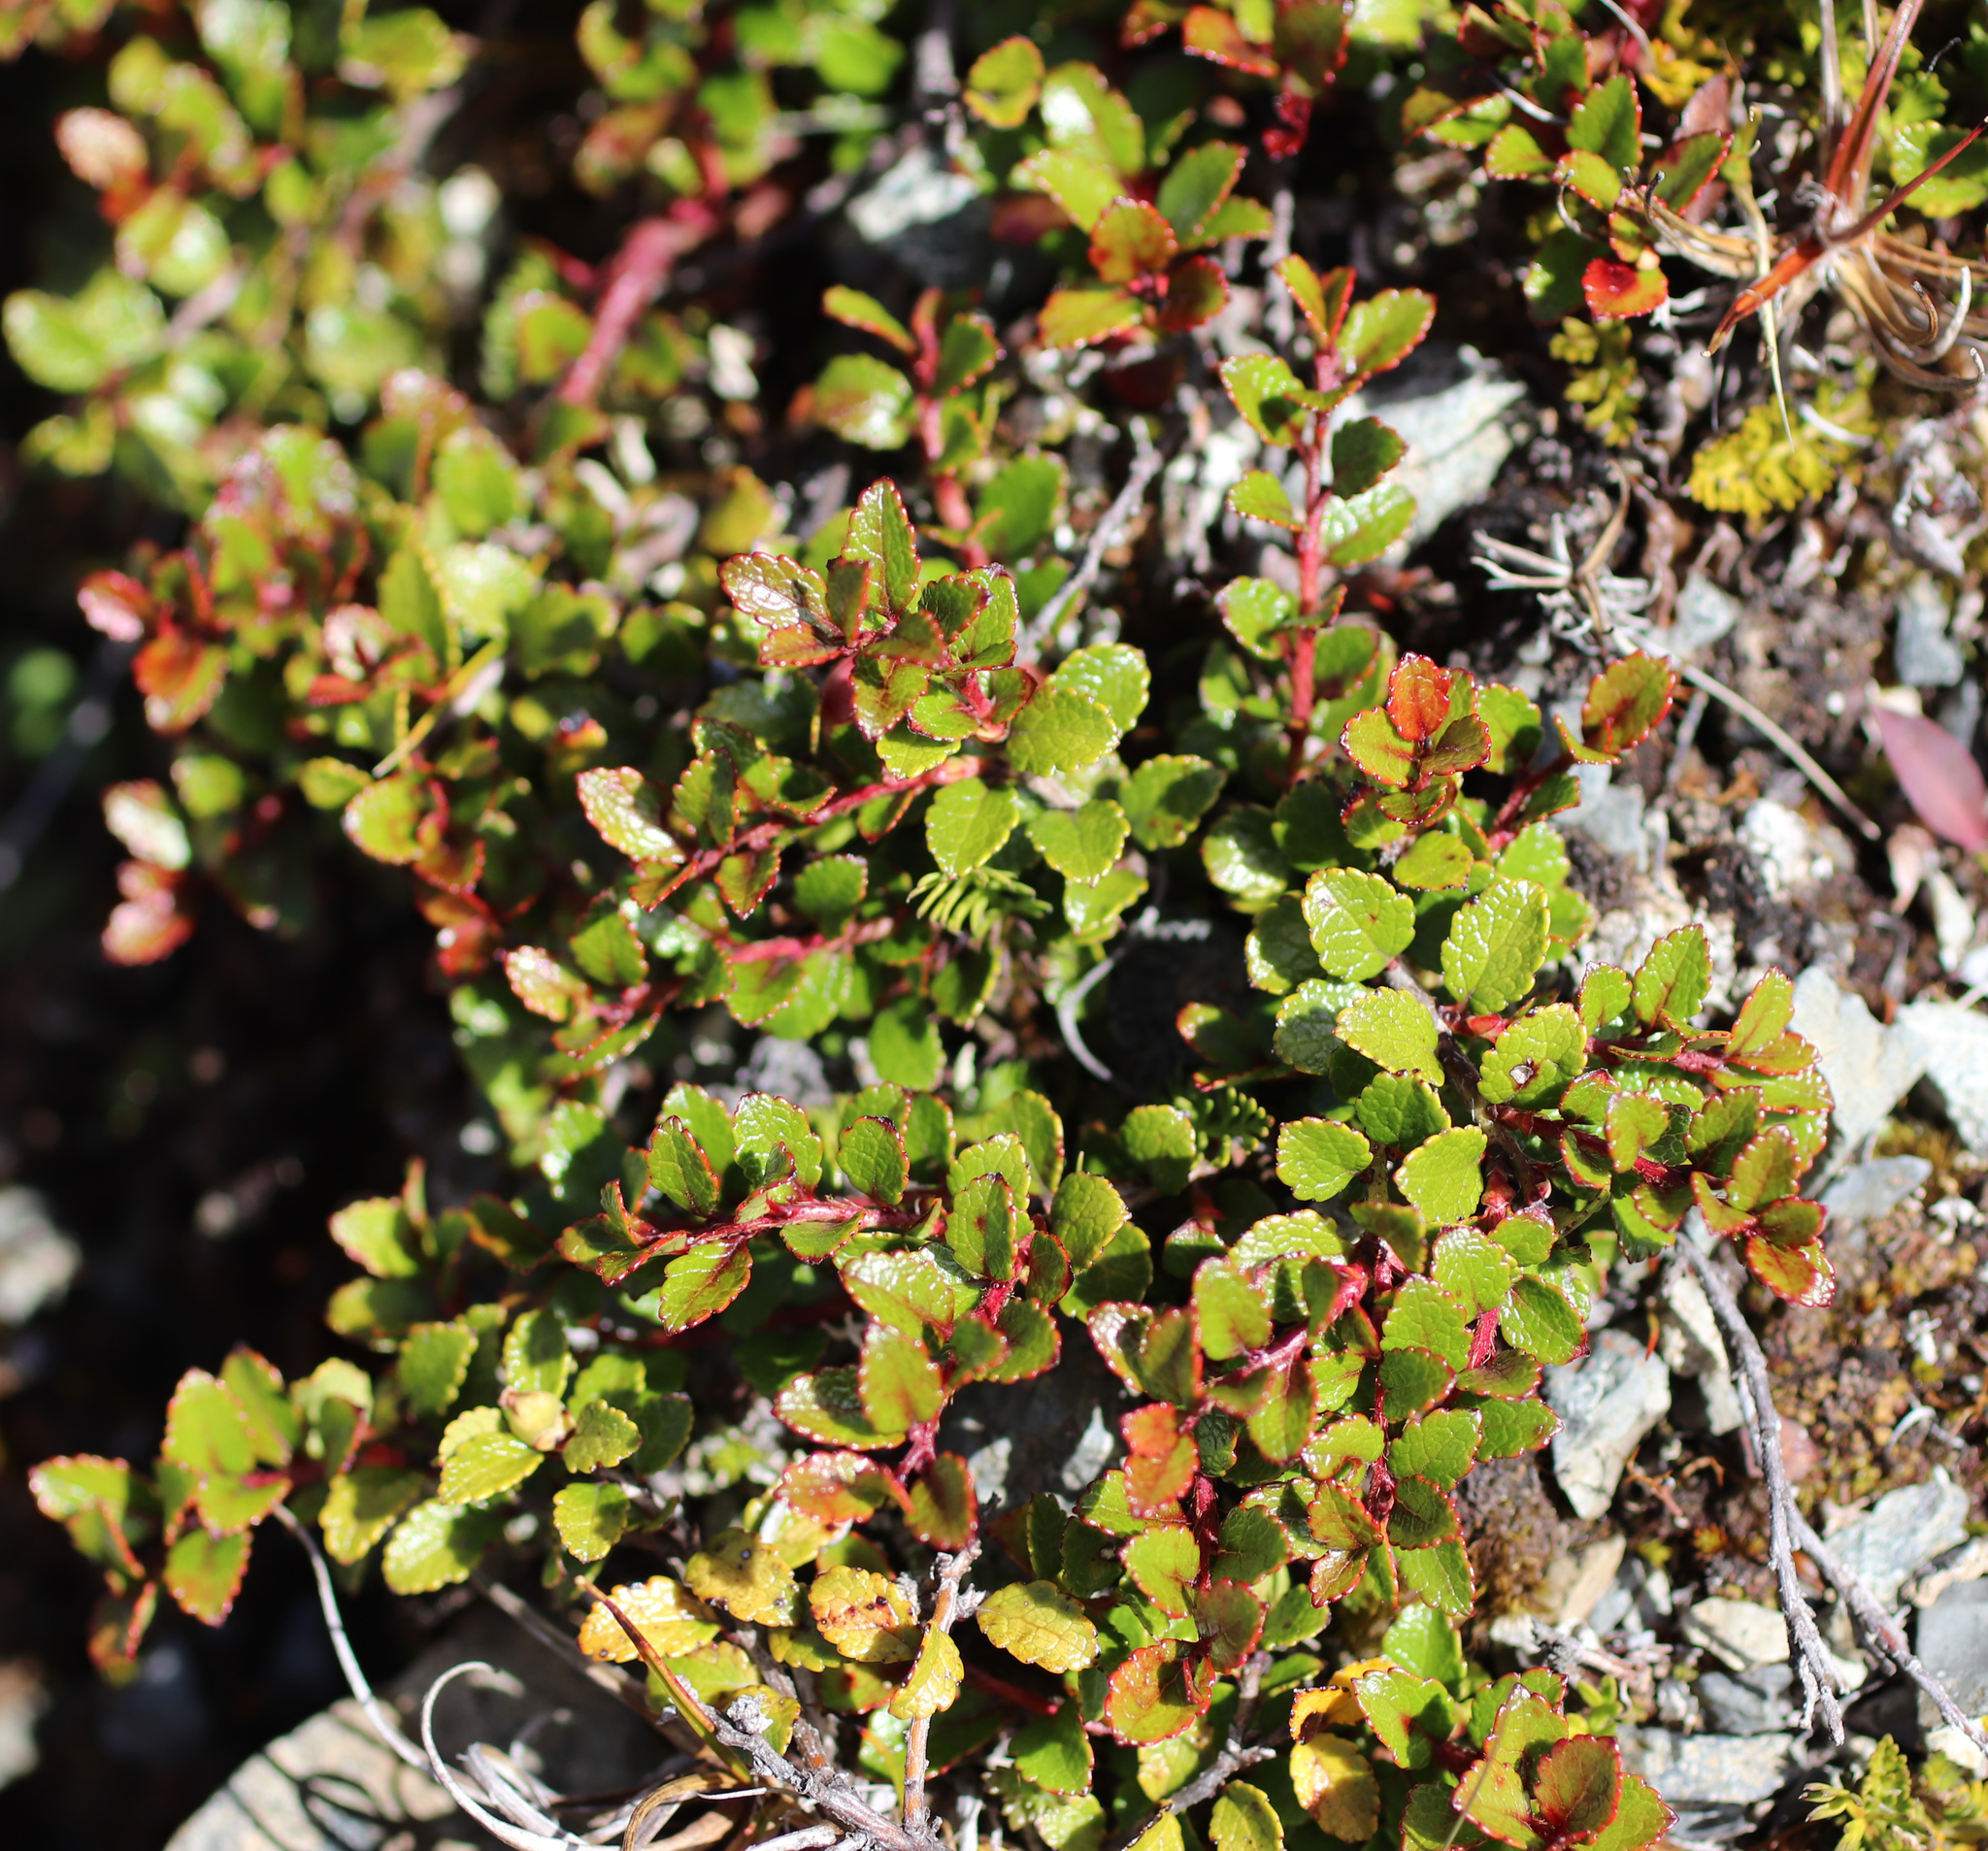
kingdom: Plantae
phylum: Tracheophyta
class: Magnoliopsida
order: Ericales
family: Ericaceae
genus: Gaultheria
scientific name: Gaultheria depressa
